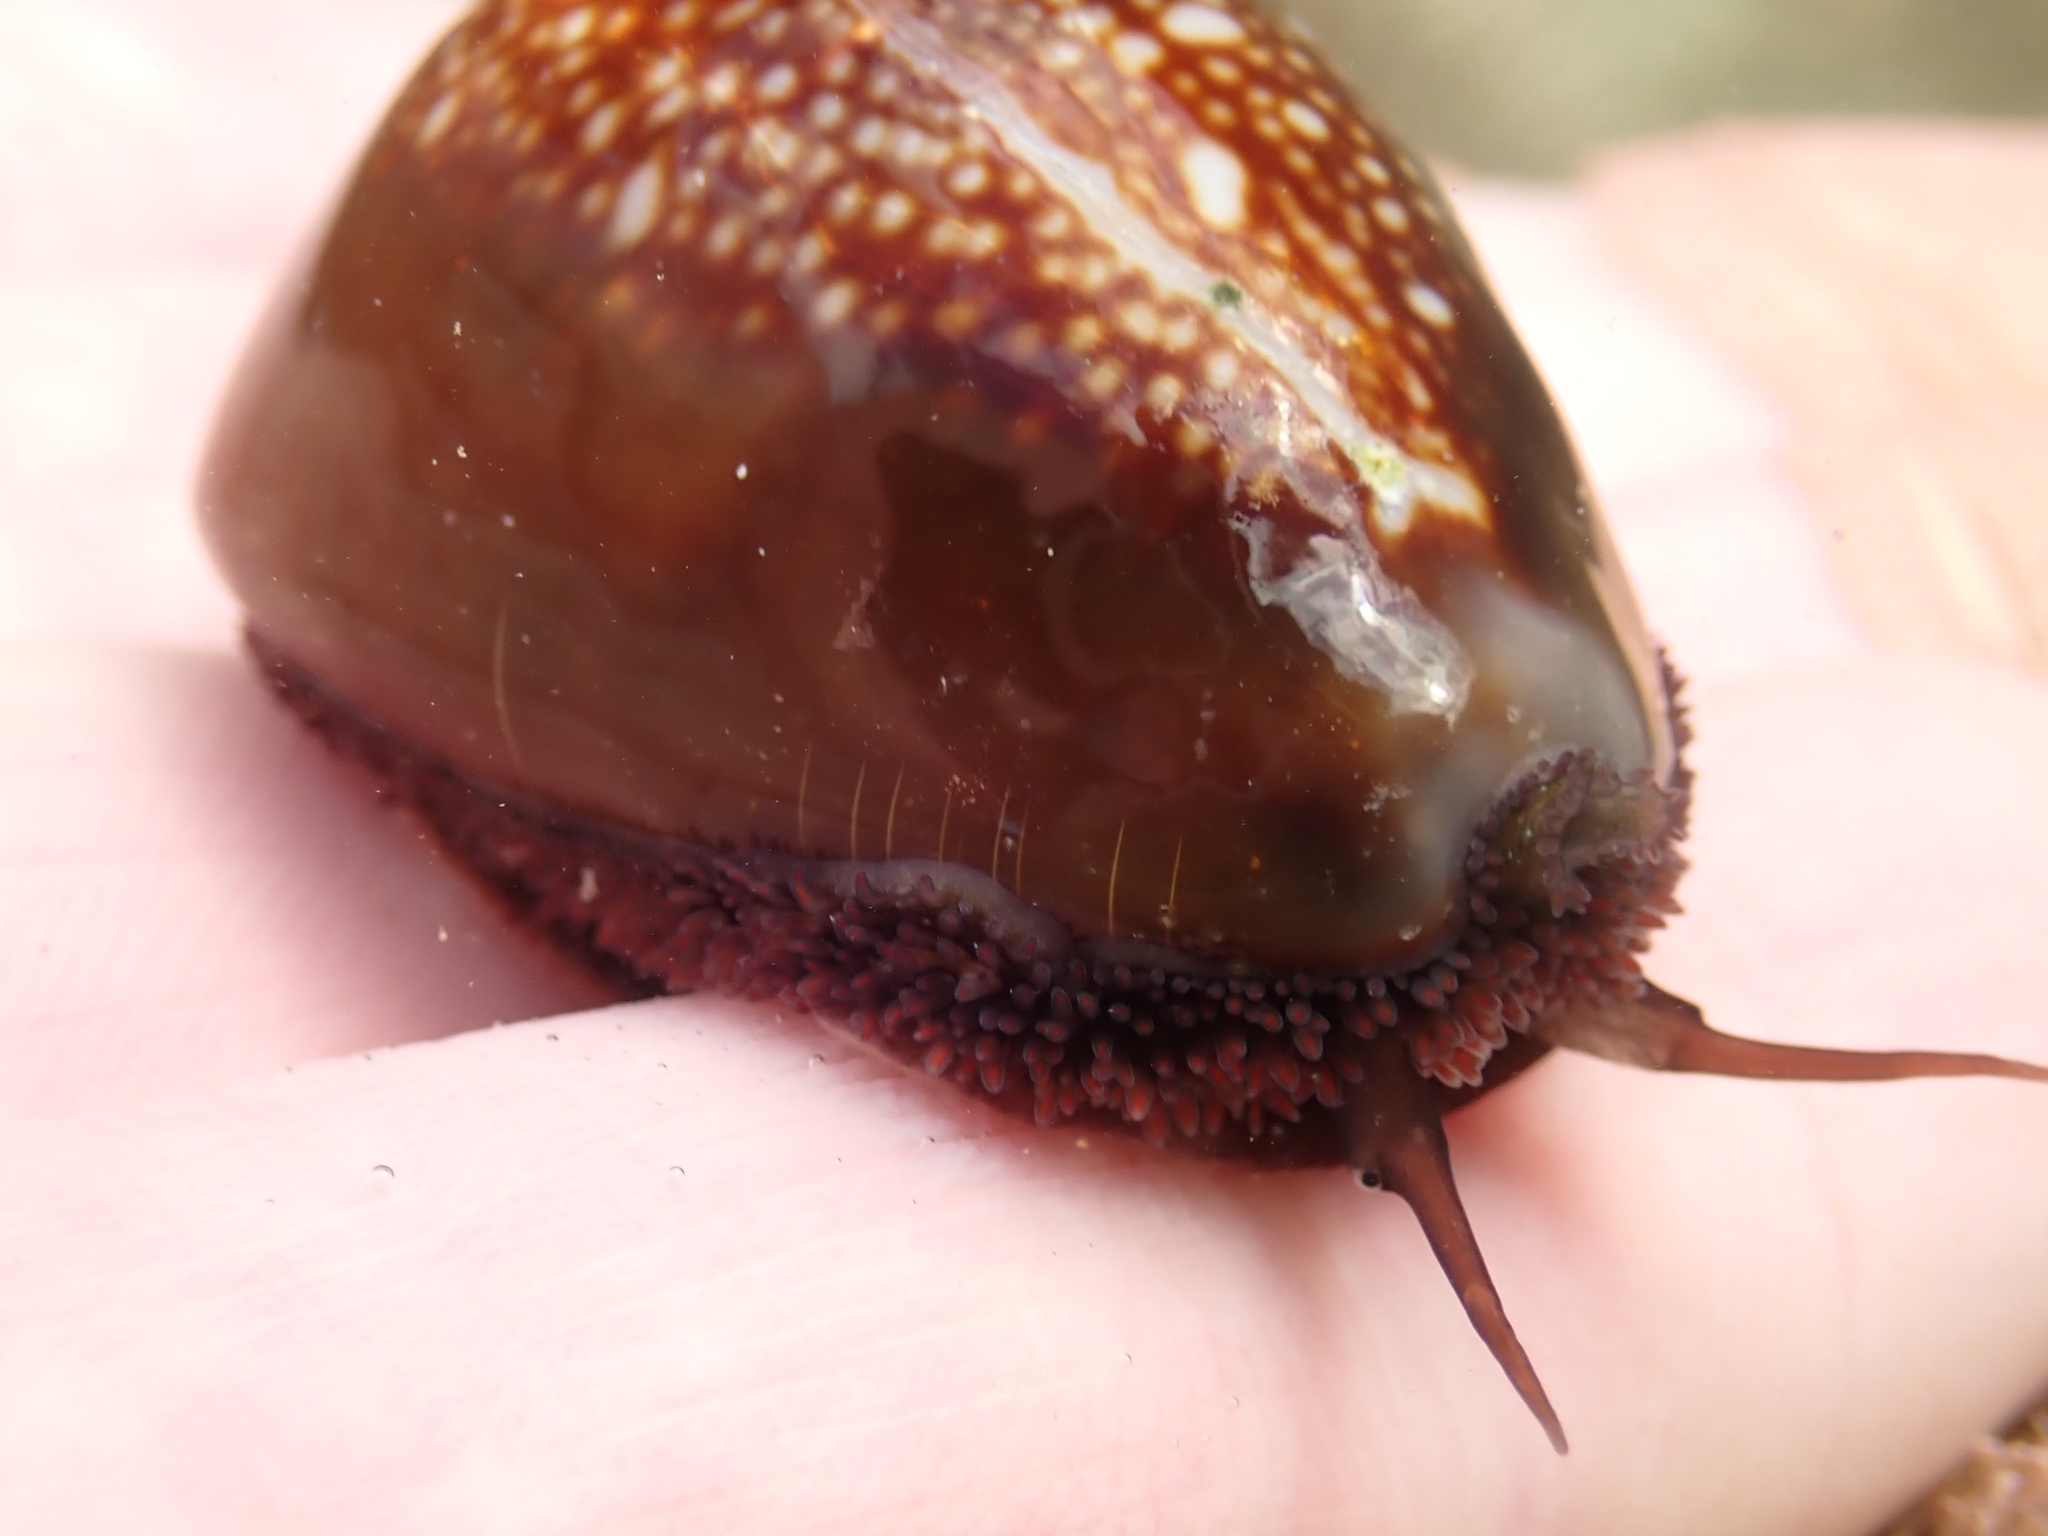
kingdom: Animalia
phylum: Mollusca
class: Gastropoda
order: Littorinimorpha
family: Cypraeidae
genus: Monetaria
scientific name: Monetaria caputserpentis
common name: Serpent's head cowrie
